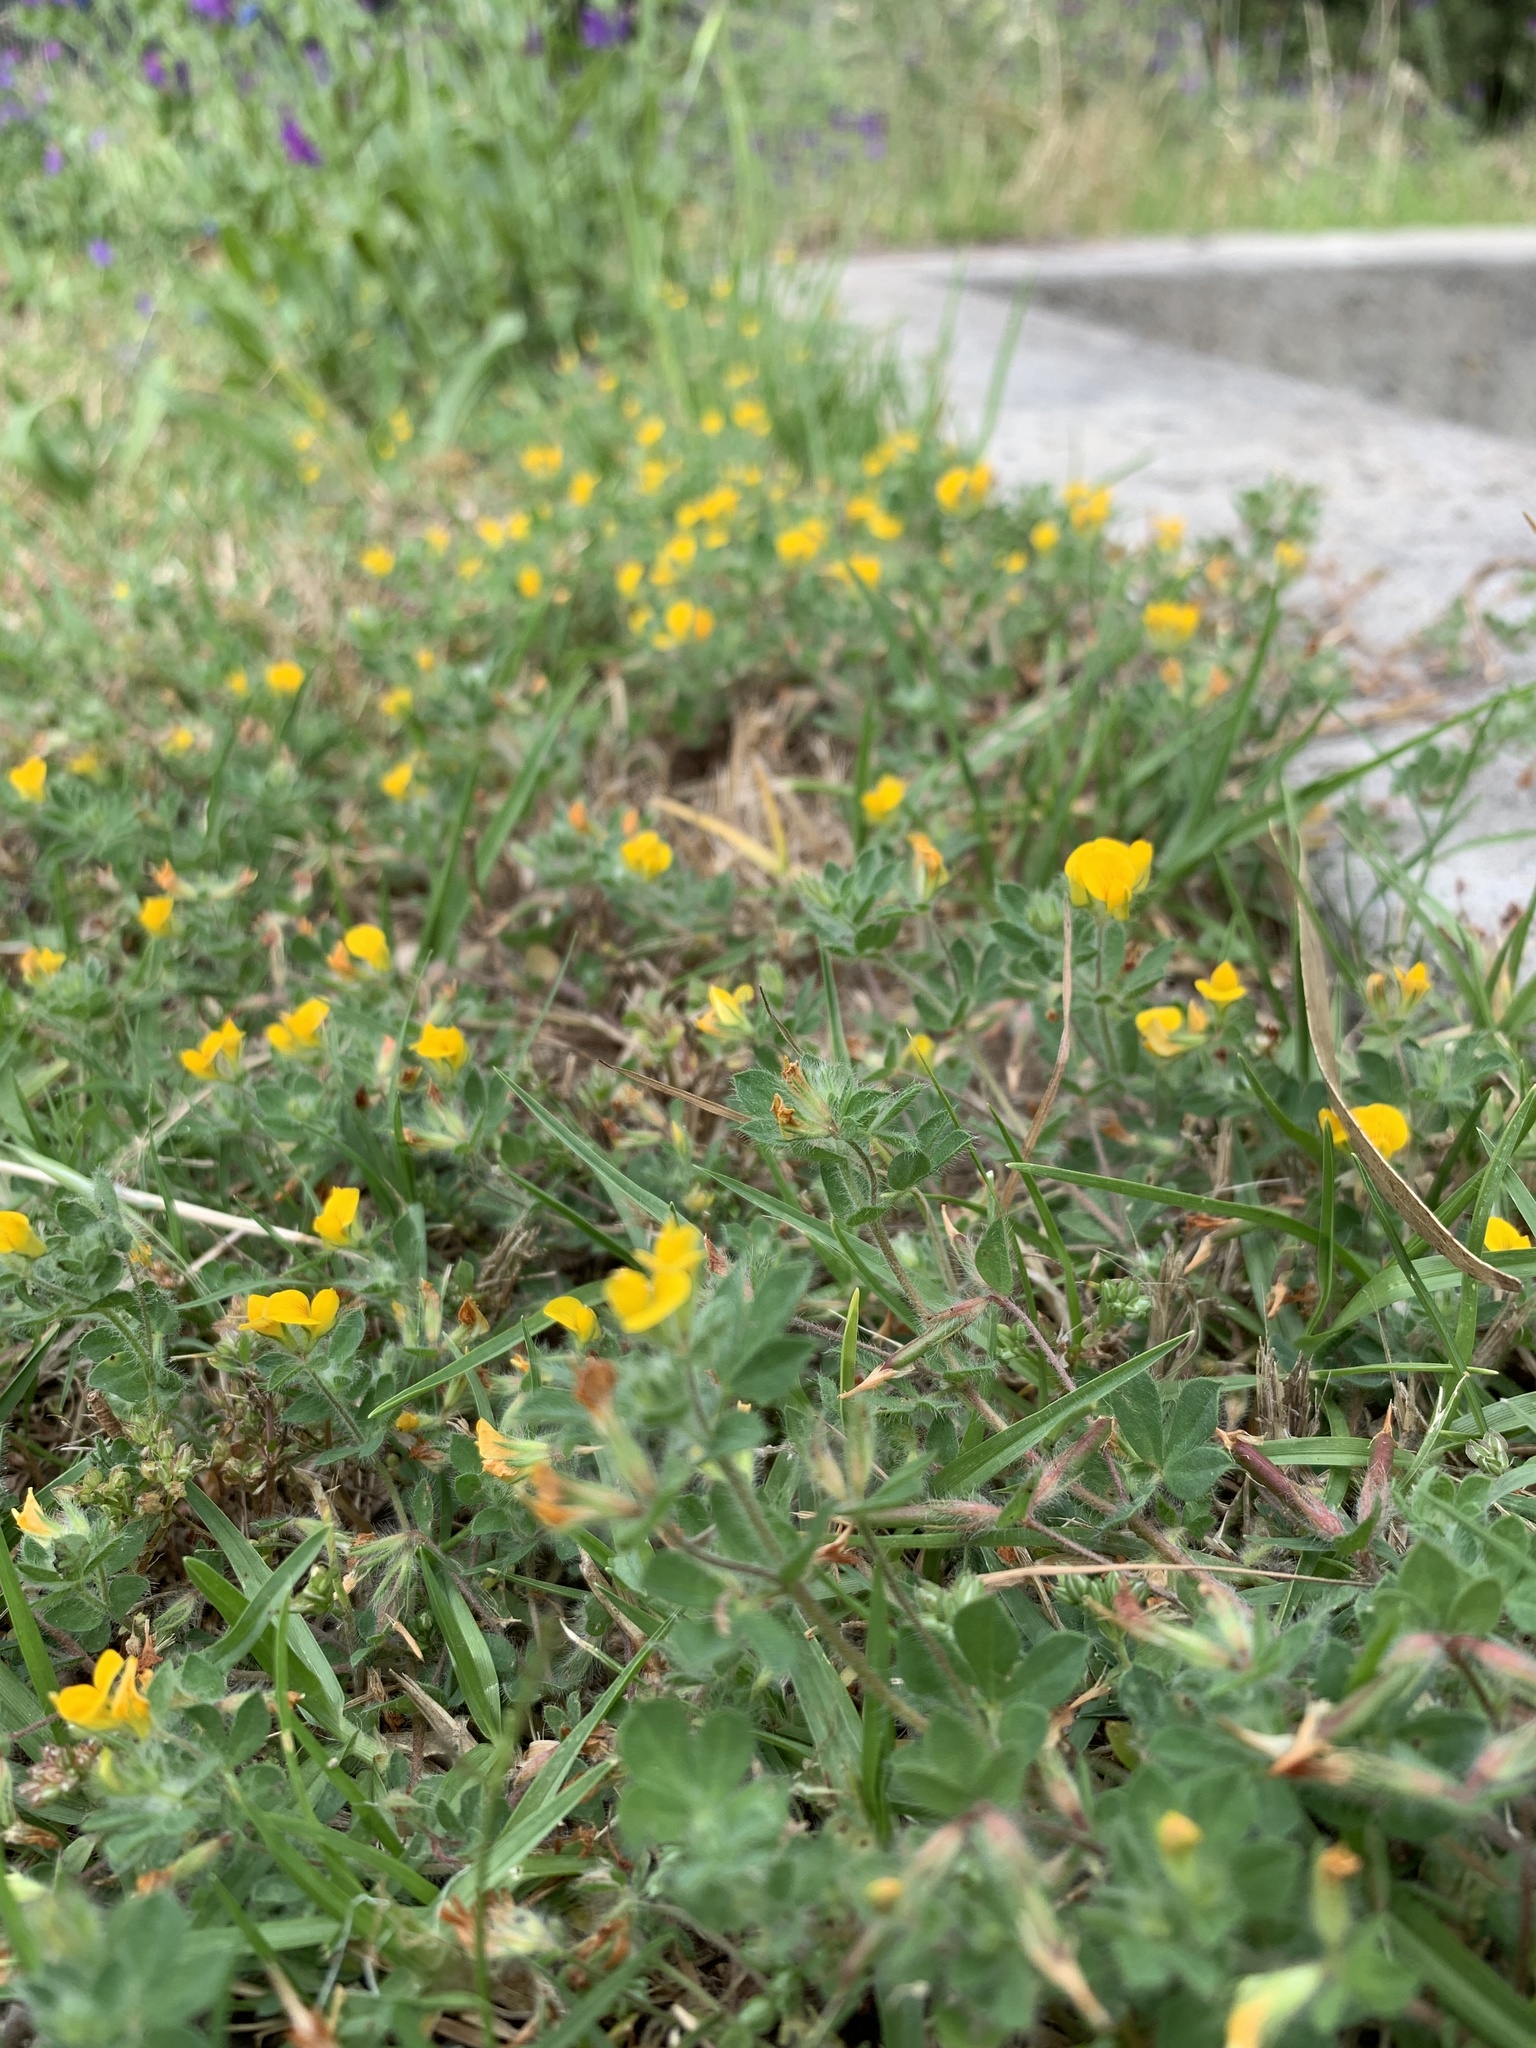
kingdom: Plantae
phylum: Tracheophyta
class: Magnoliopsida
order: Fabales
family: Fabaceae
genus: Lotus
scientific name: Lotus subbiflorus
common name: Hairy bird's-foot trefoil
